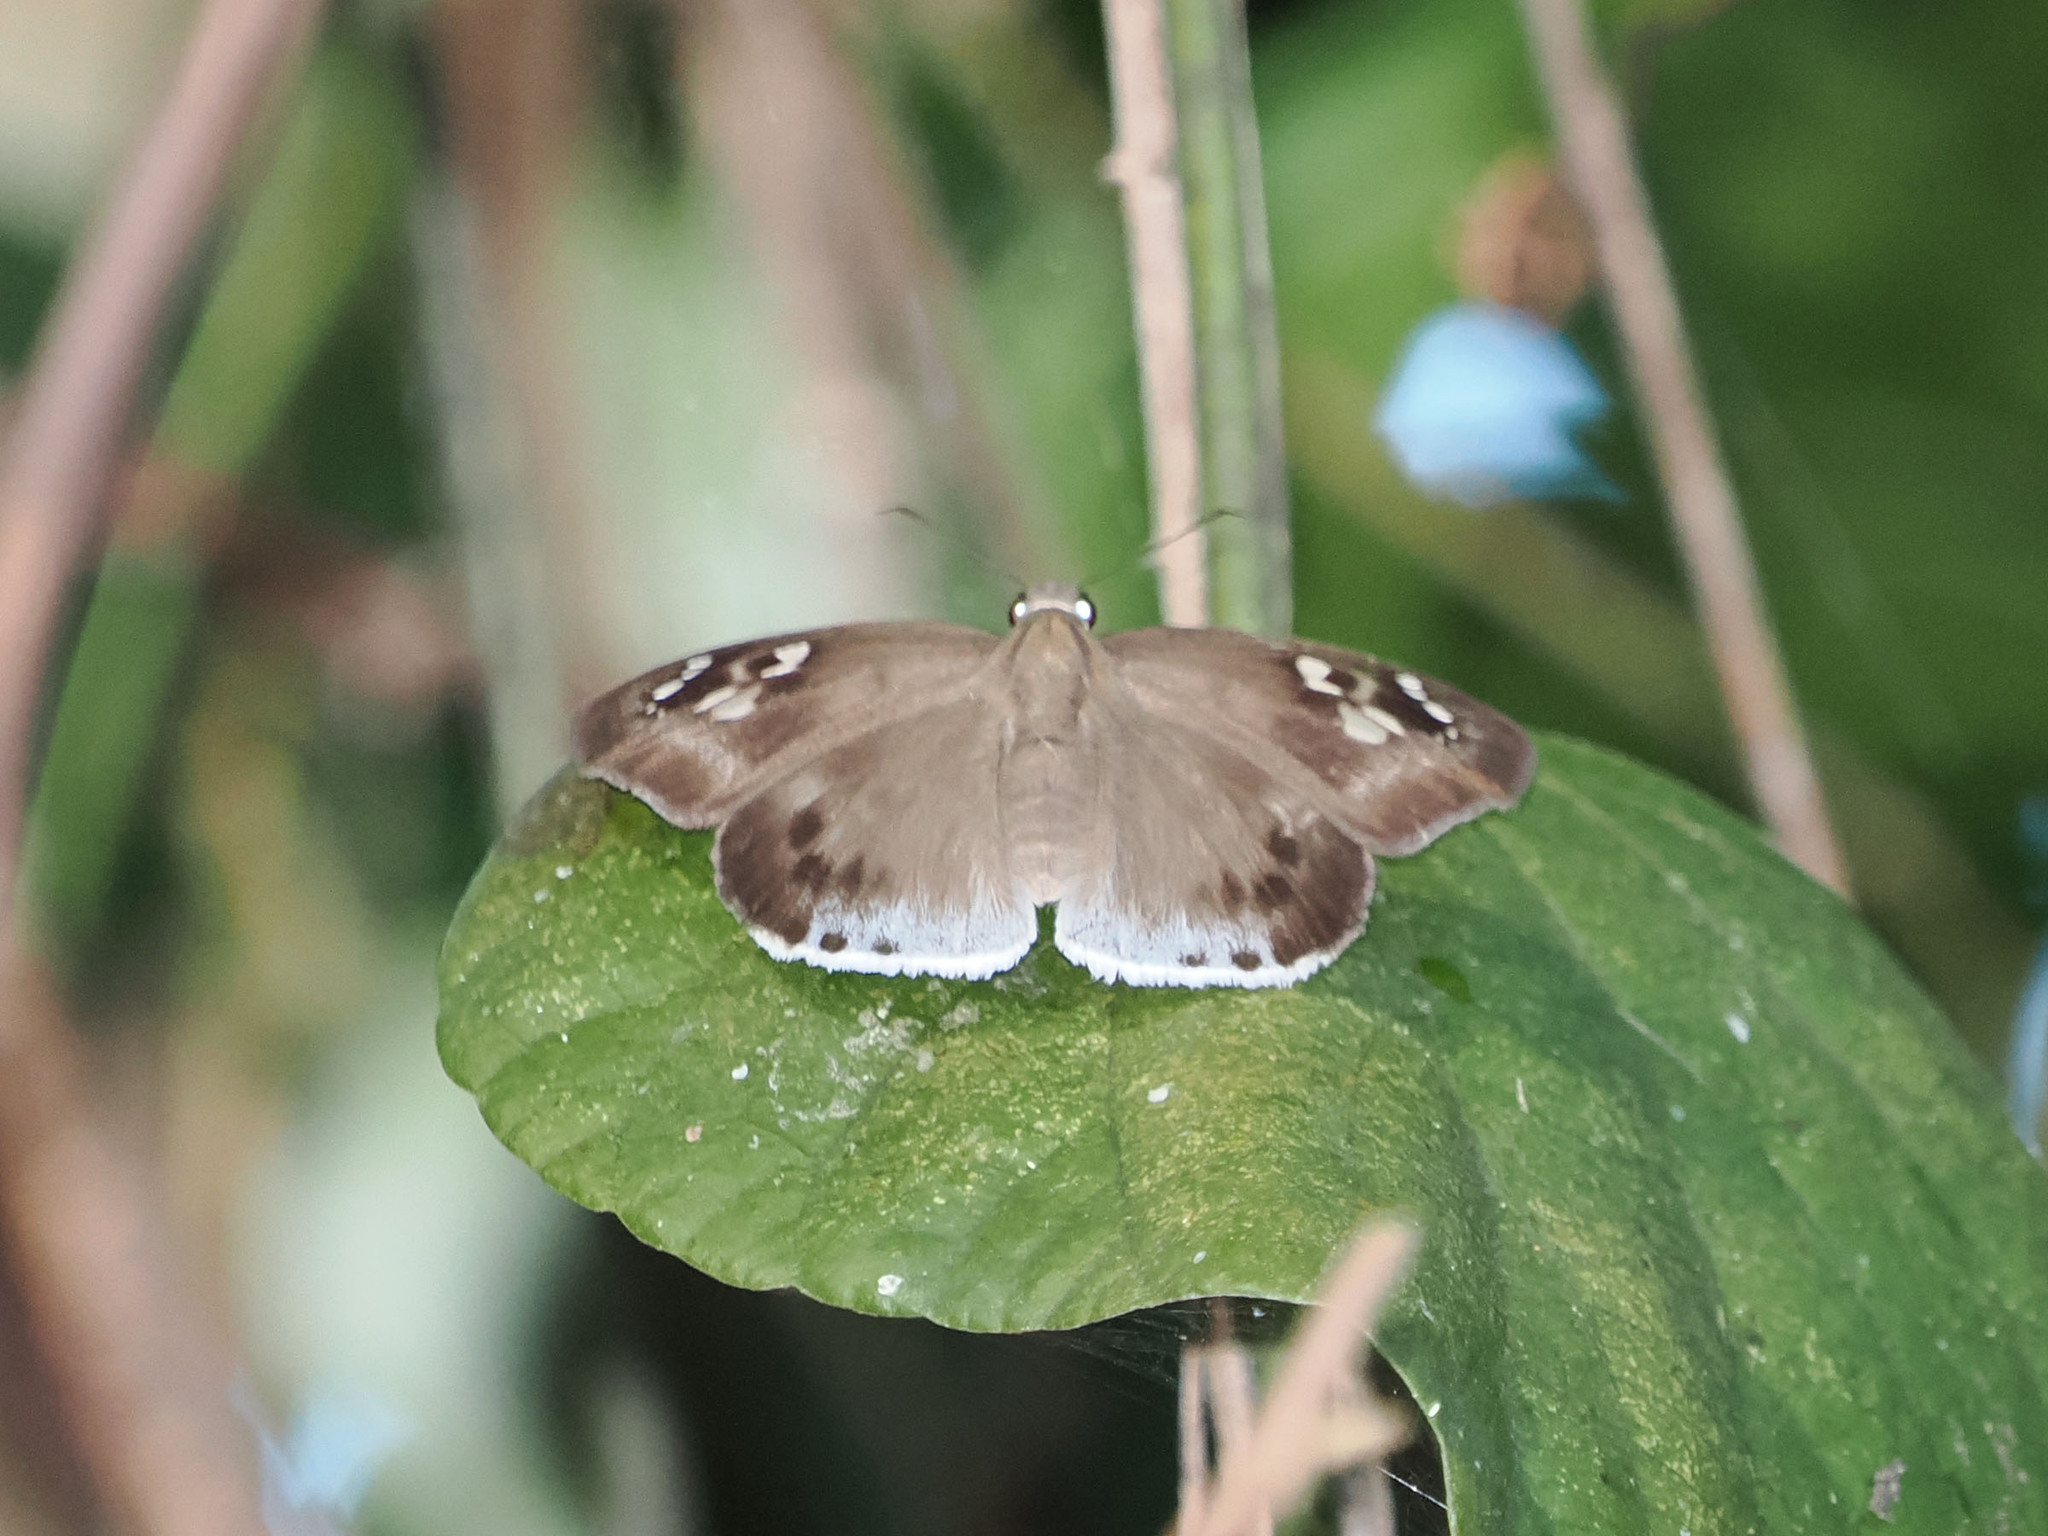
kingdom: Animalia
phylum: Arthropoda
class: Insecta
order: Lepidoptera
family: Hesperiidae
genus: Tagiades
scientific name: Tagiades japetus
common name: Pied flat
